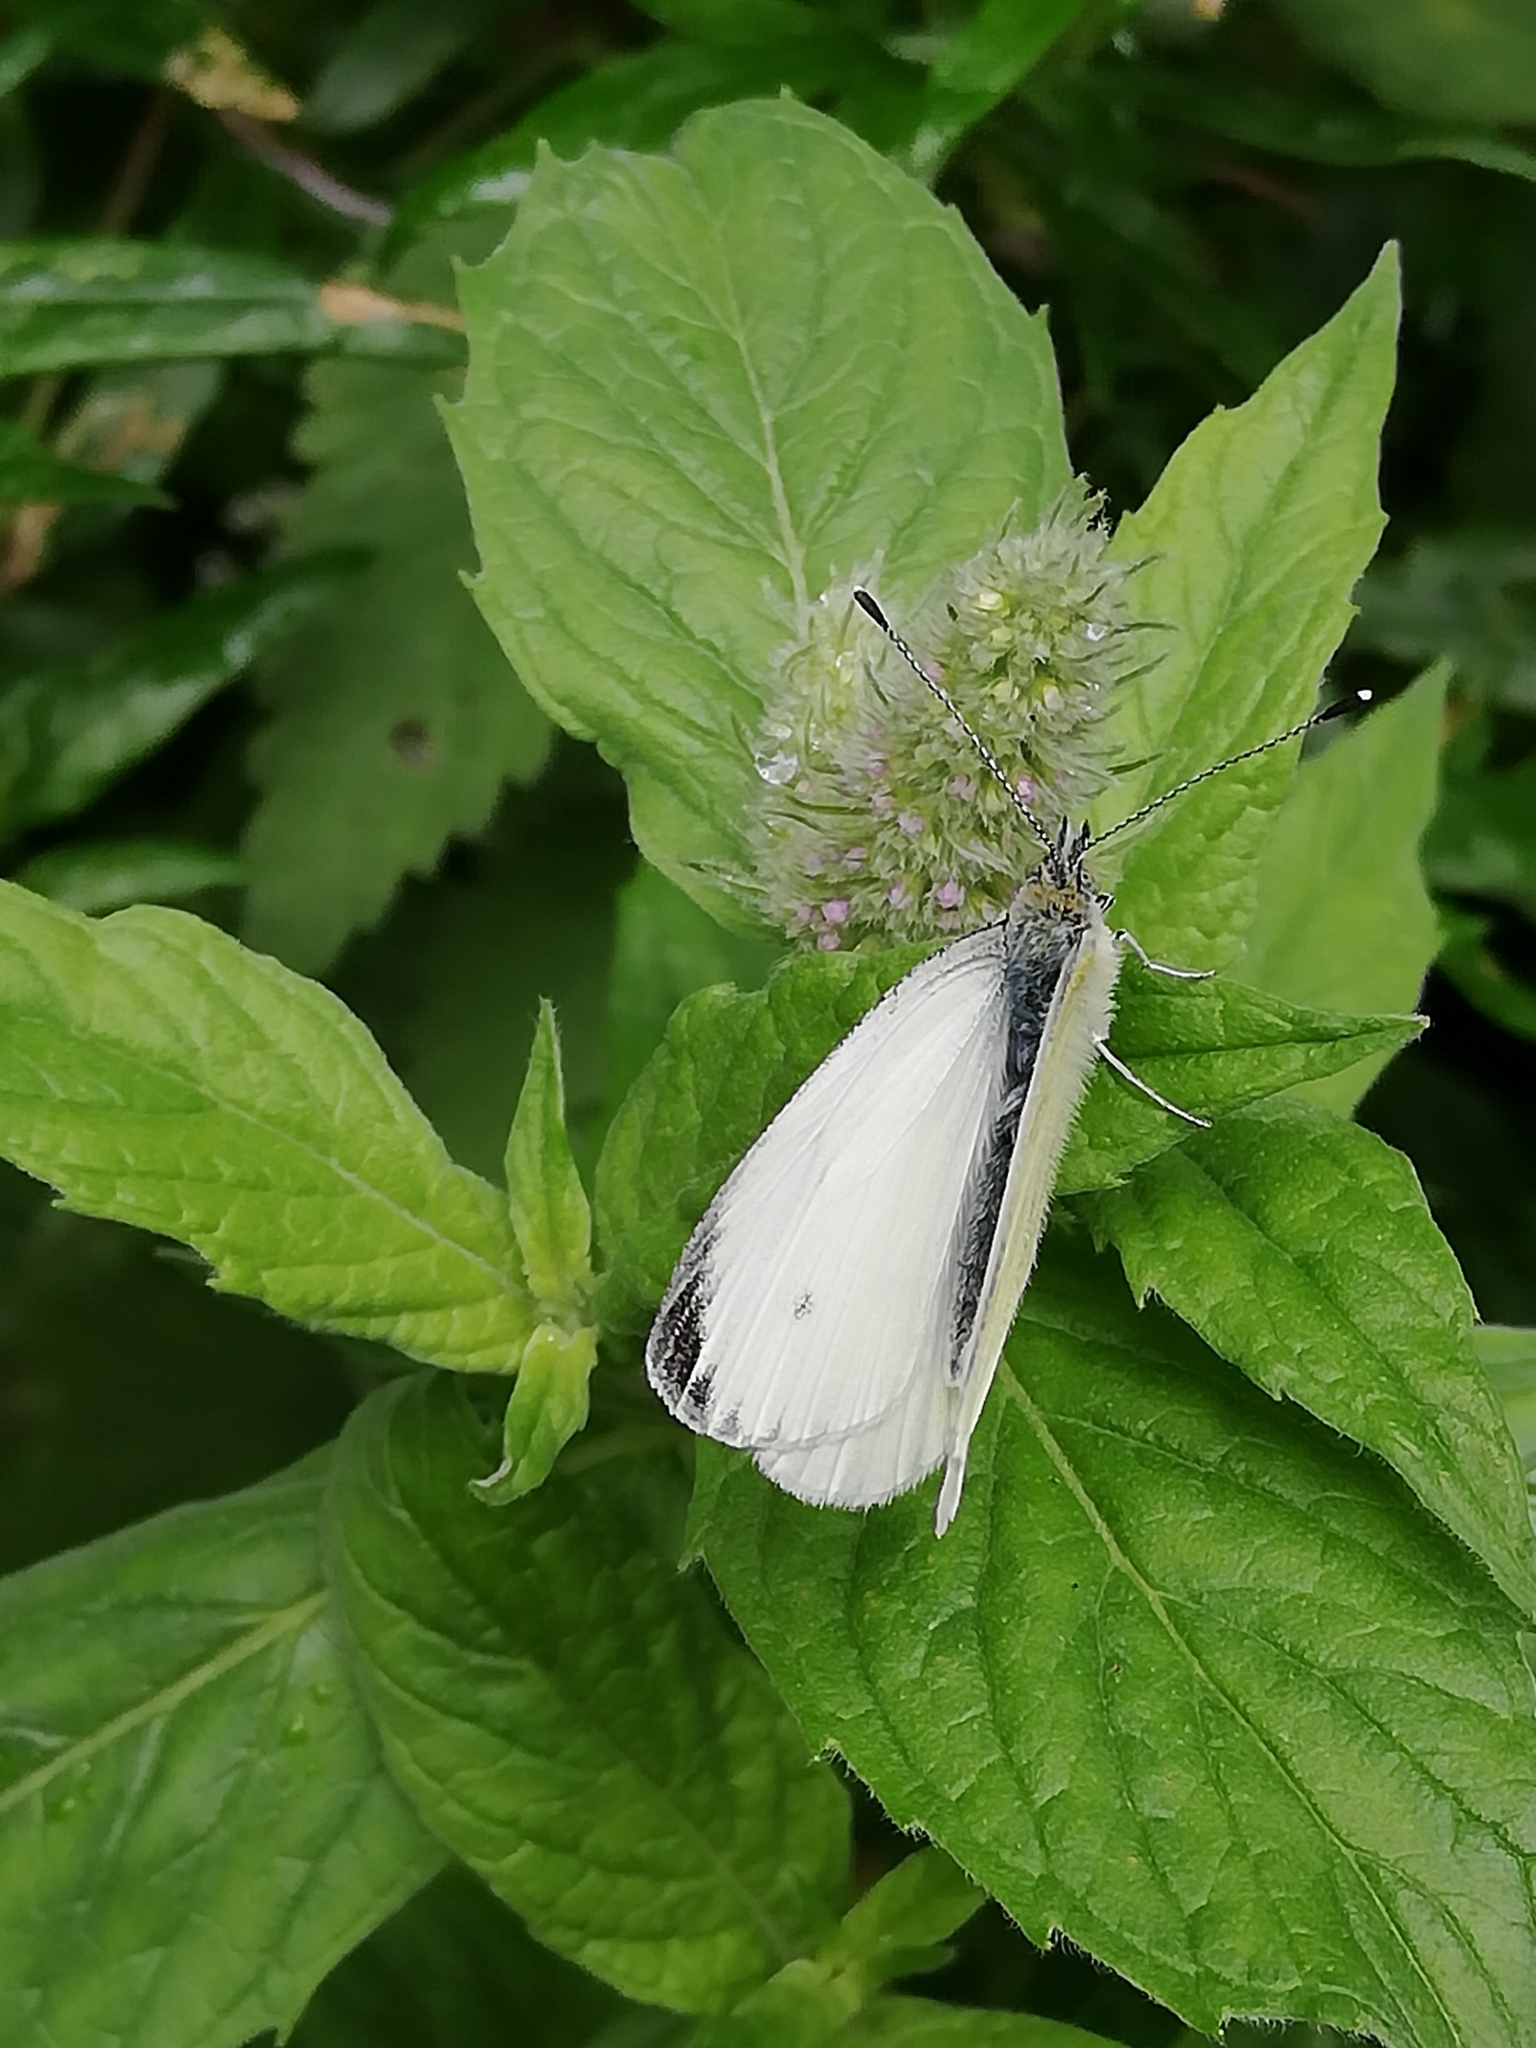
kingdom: Animalia
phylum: Arthropoda
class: Insecta
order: Lepidoptera
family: Pieridae
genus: Pieris
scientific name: Pieris napi
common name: Green-veined white
